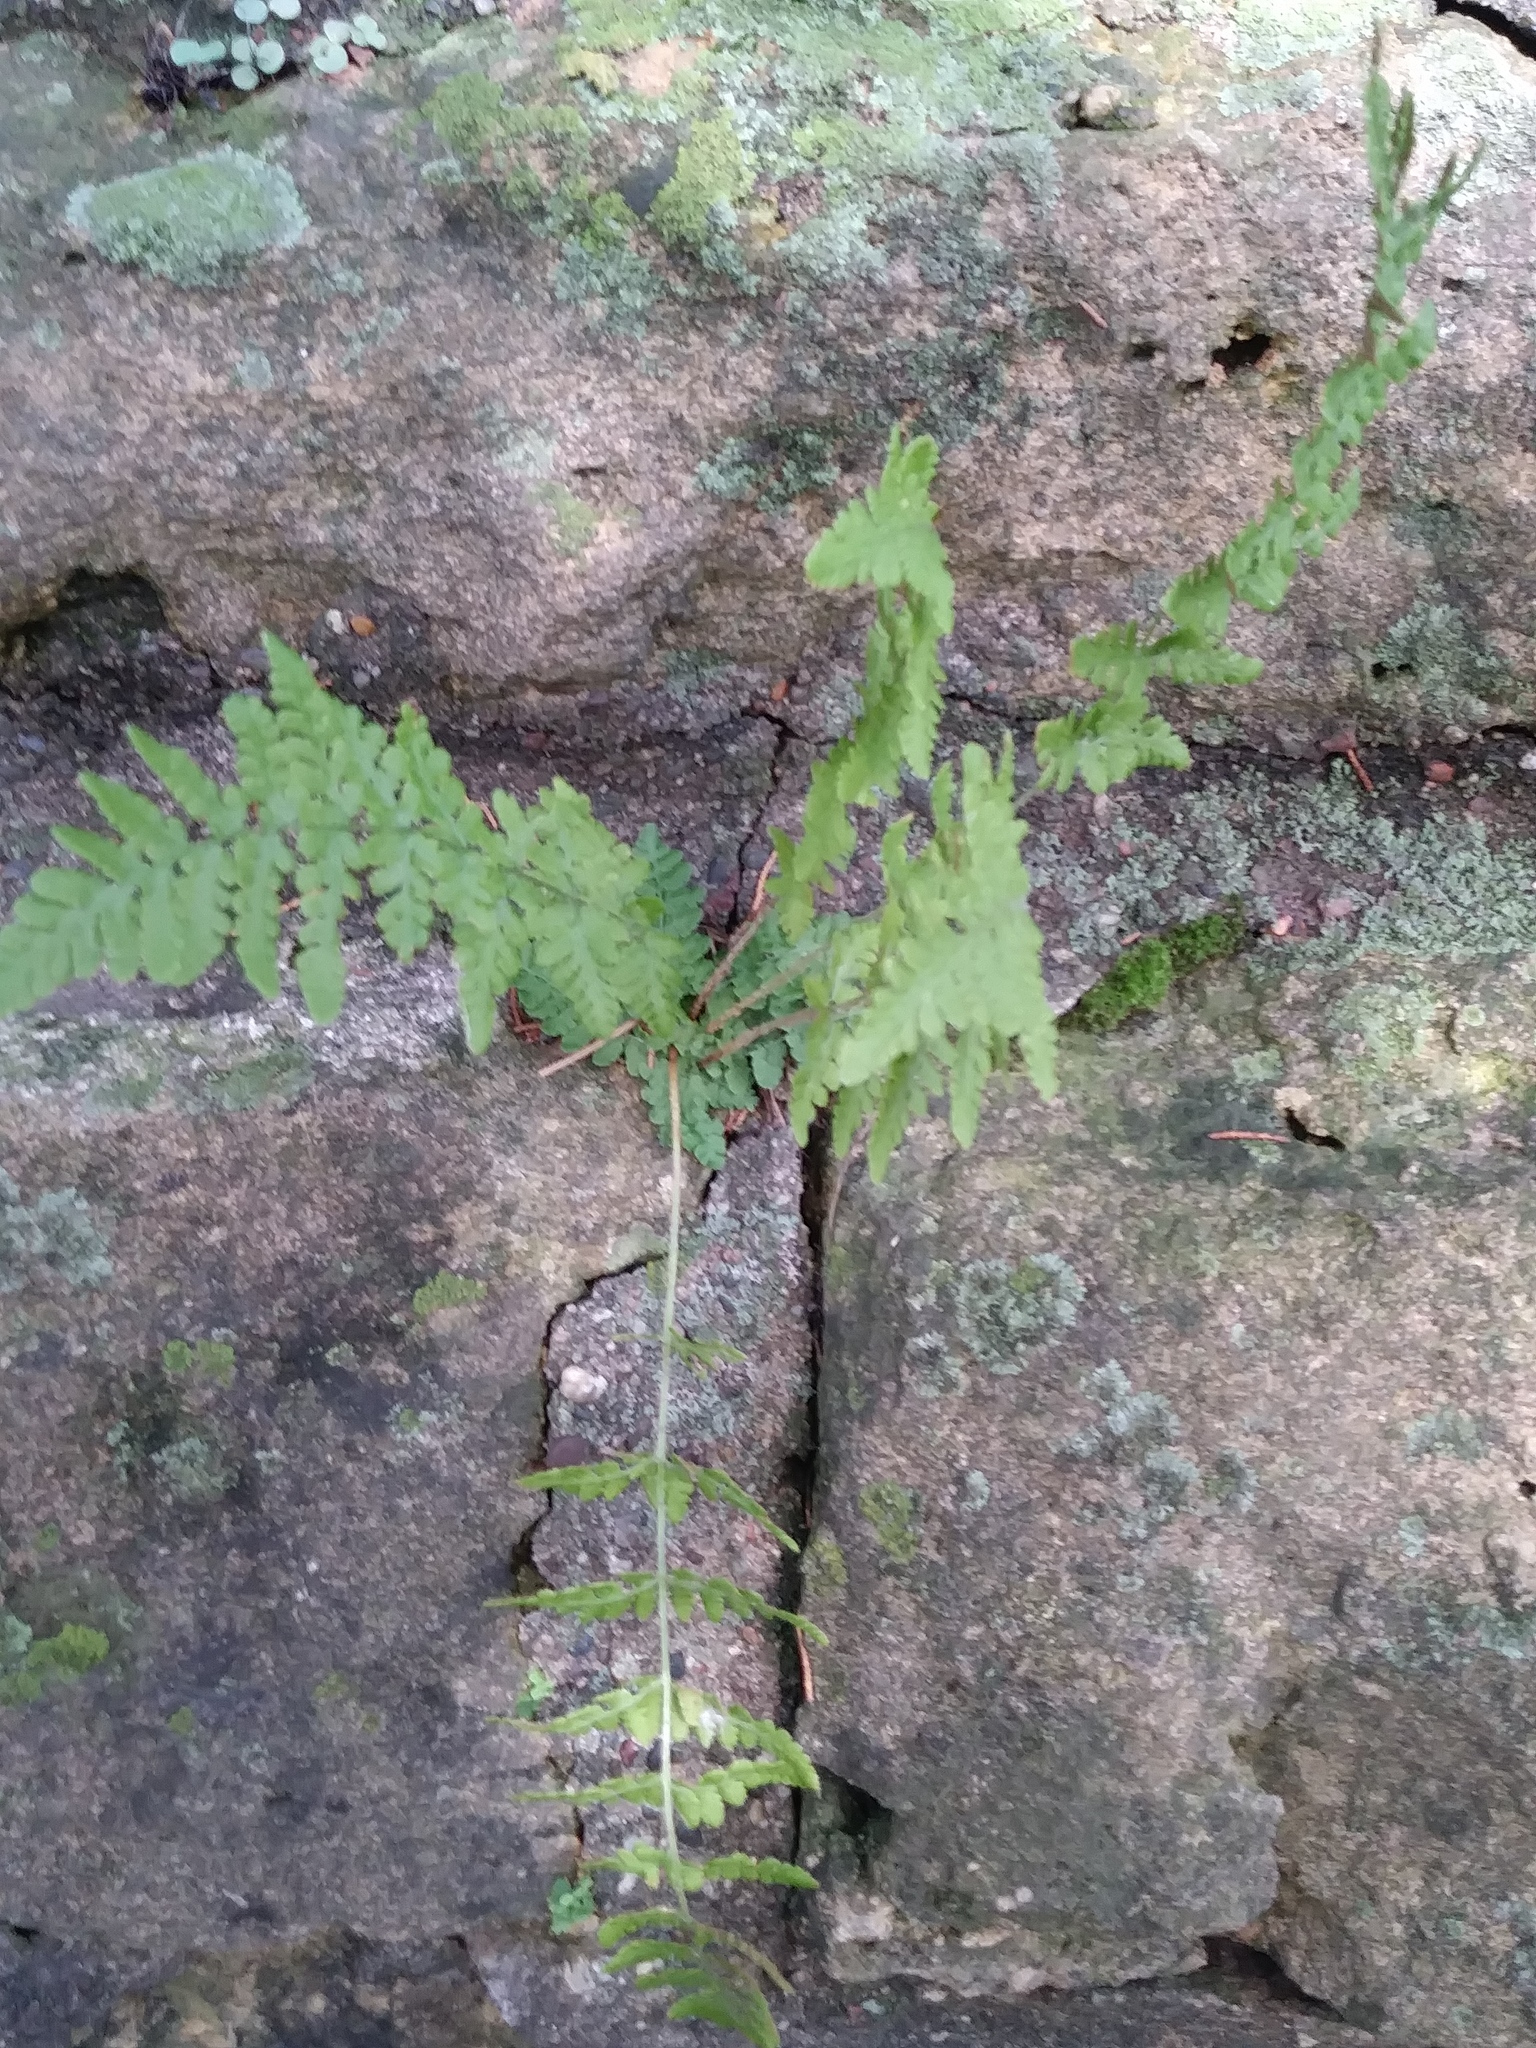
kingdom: Plantae
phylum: Tracheophyta
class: Polypodiopsida
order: Polypodiales
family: Woodsiaceae
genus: Physematium
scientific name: Physematium obtusum
